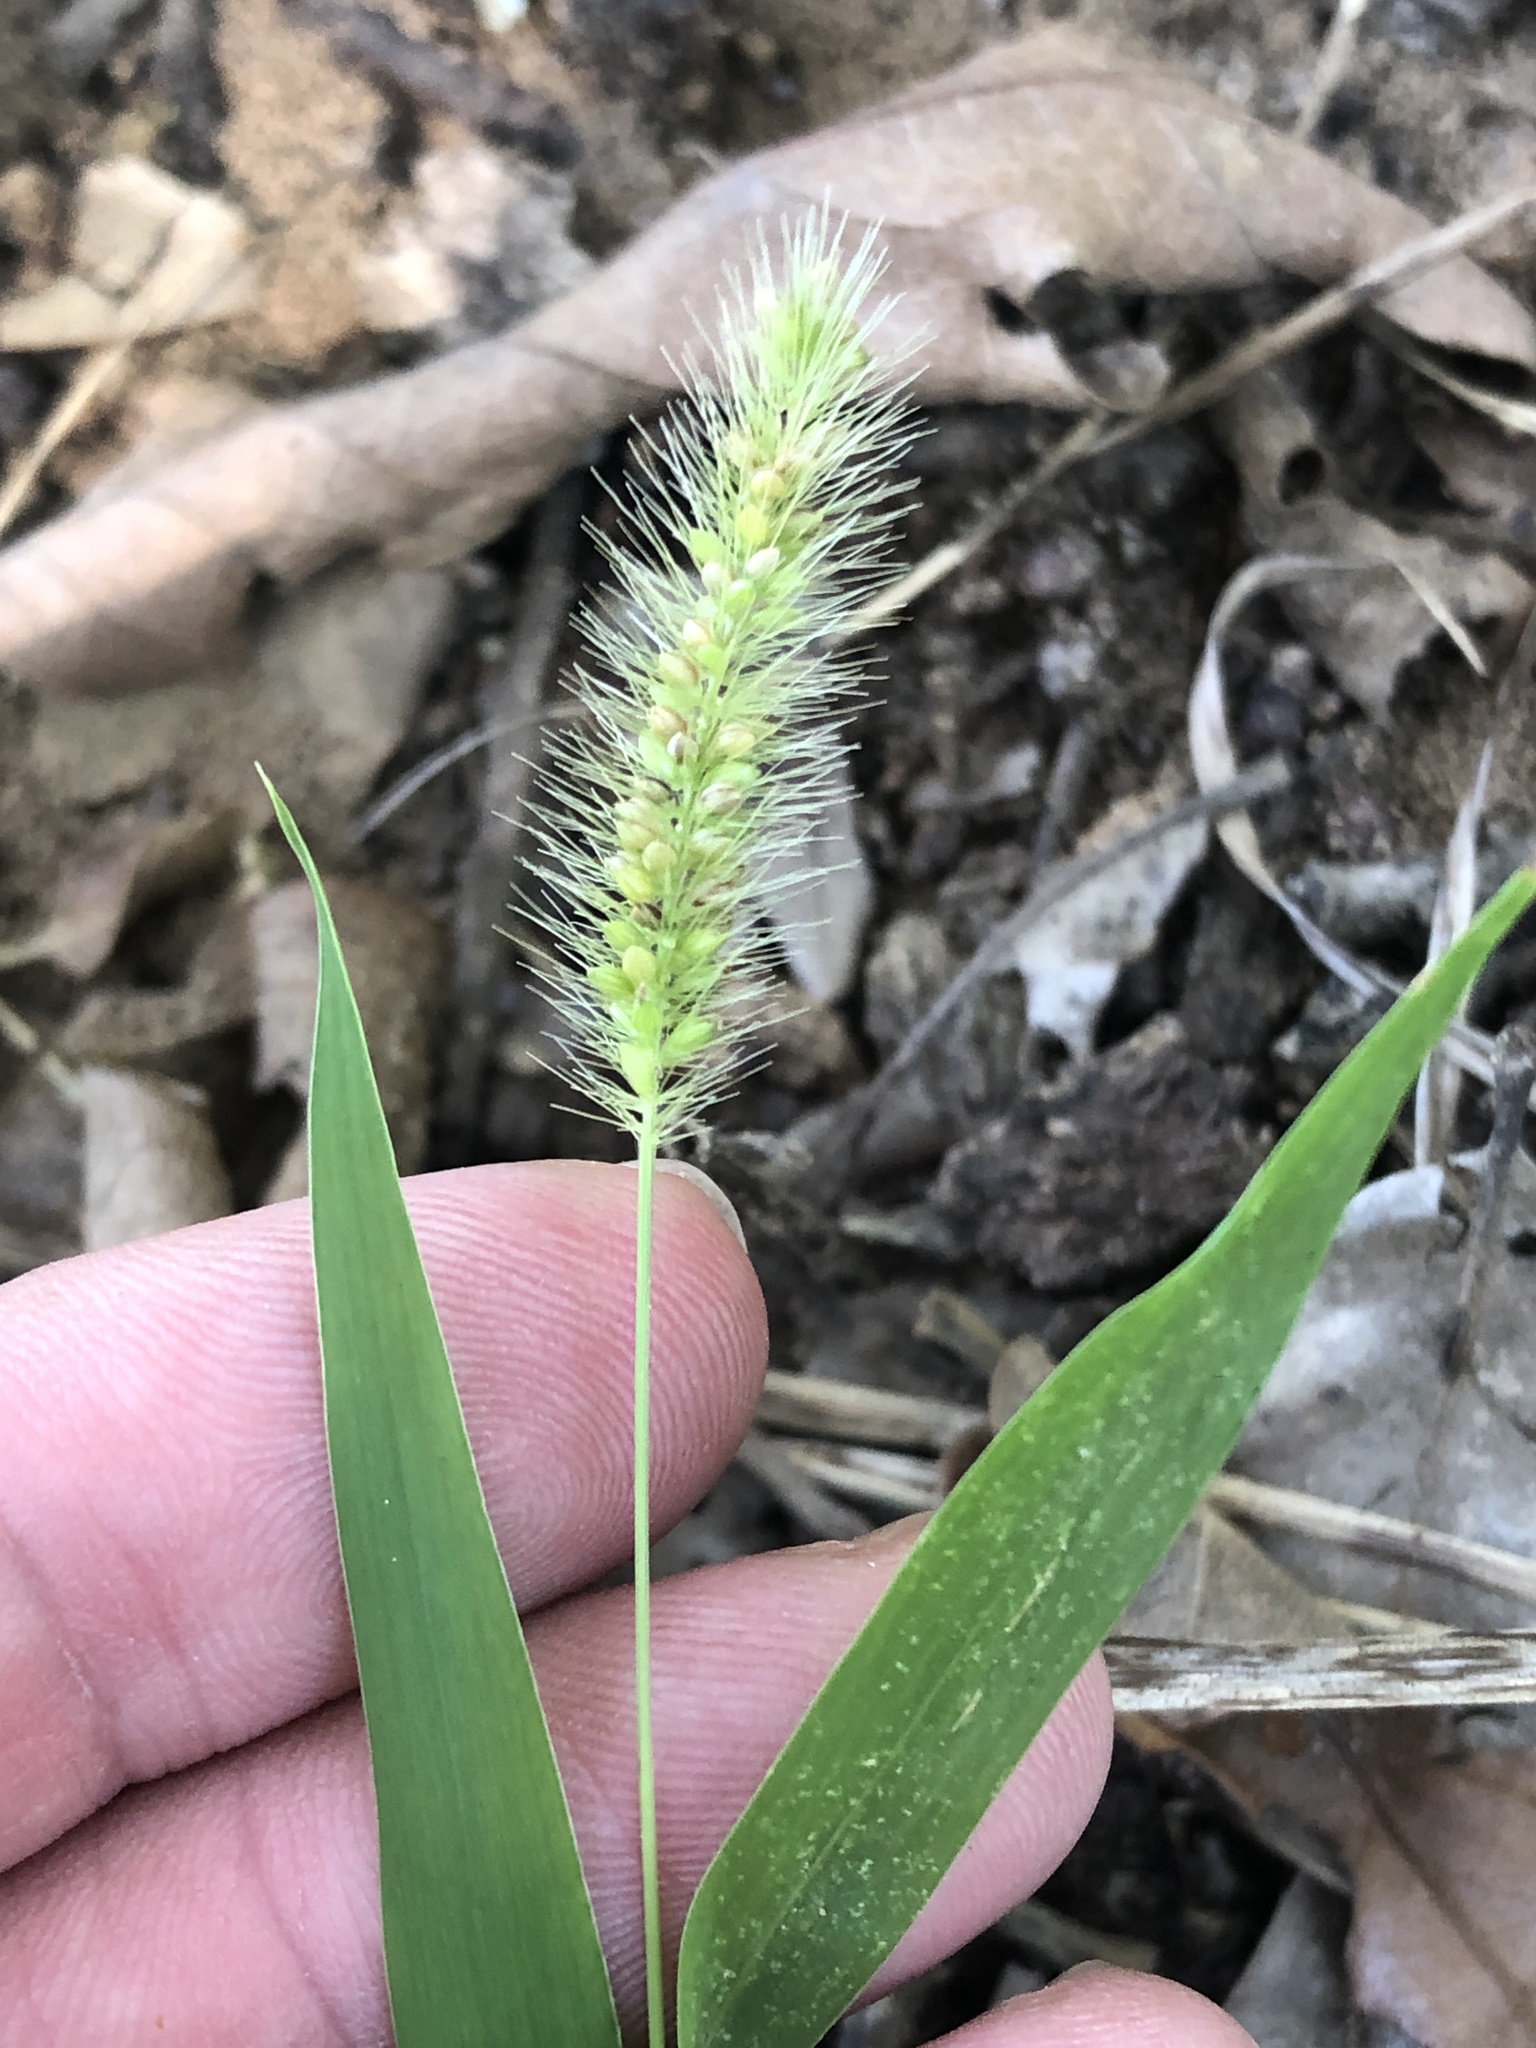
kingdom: Plantae
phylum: Tracheophyta
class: Liliopsida
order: Poales
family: Poaceae
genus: Setaria
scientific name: Setaria viridis
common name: Green bristlegrass
